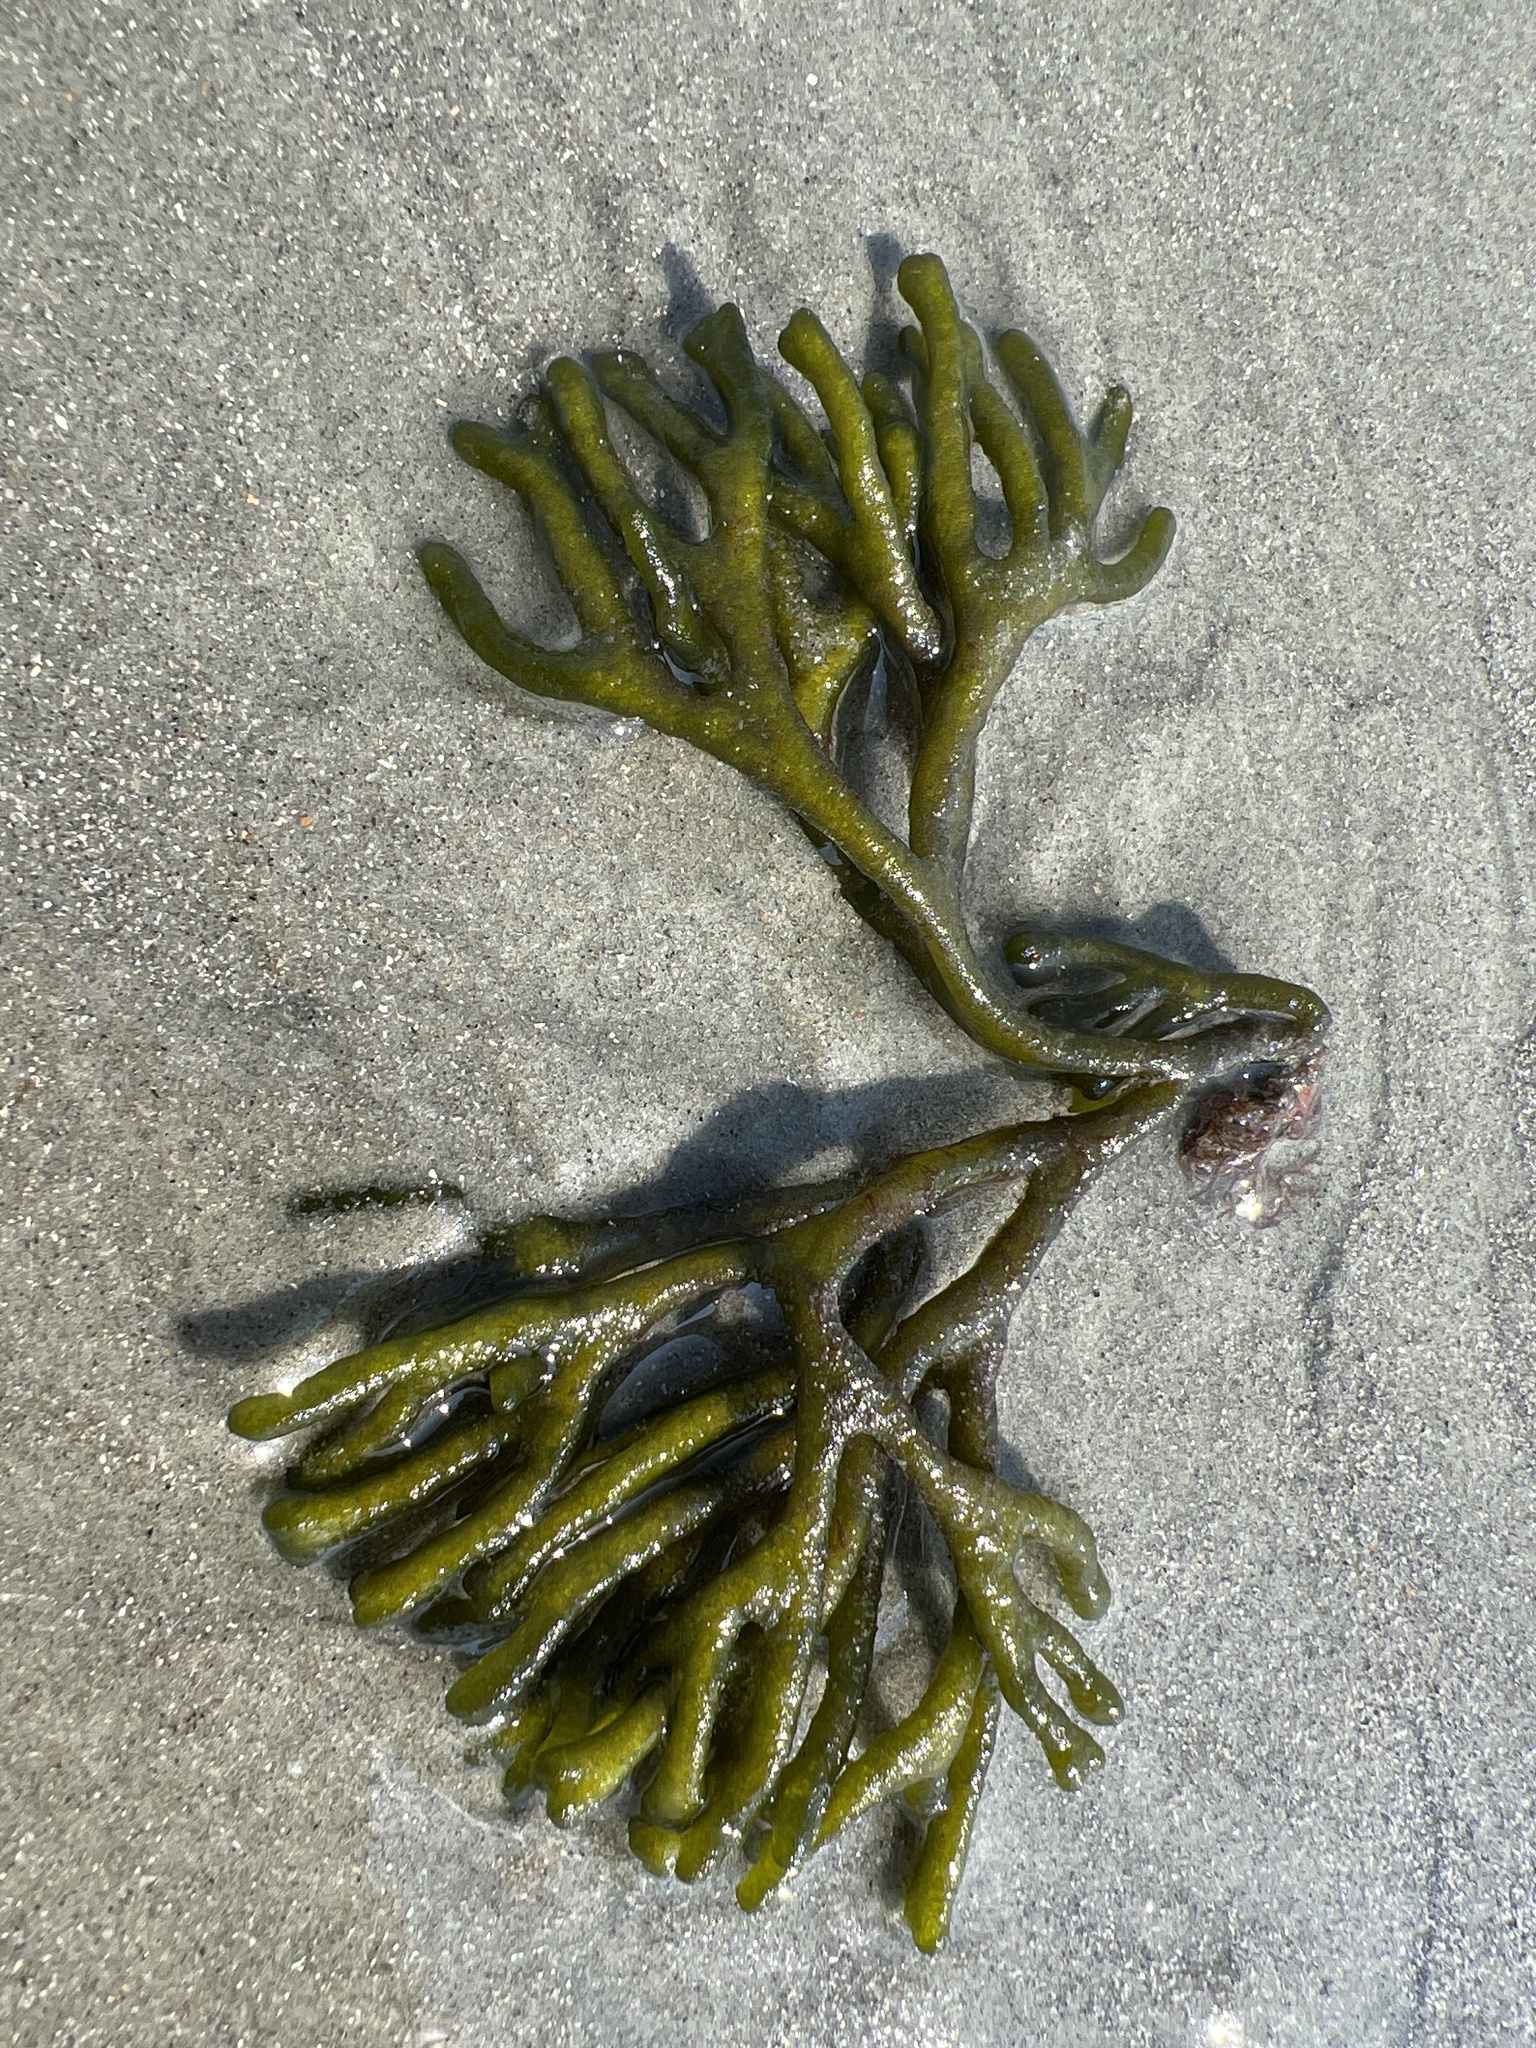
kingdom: Plantae
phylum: Chlorophyta
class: Ulvophyceae
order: Bryopsidales
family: Codiaceae
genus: Codium
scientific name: Codium fragile
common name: Dead man's fingers
